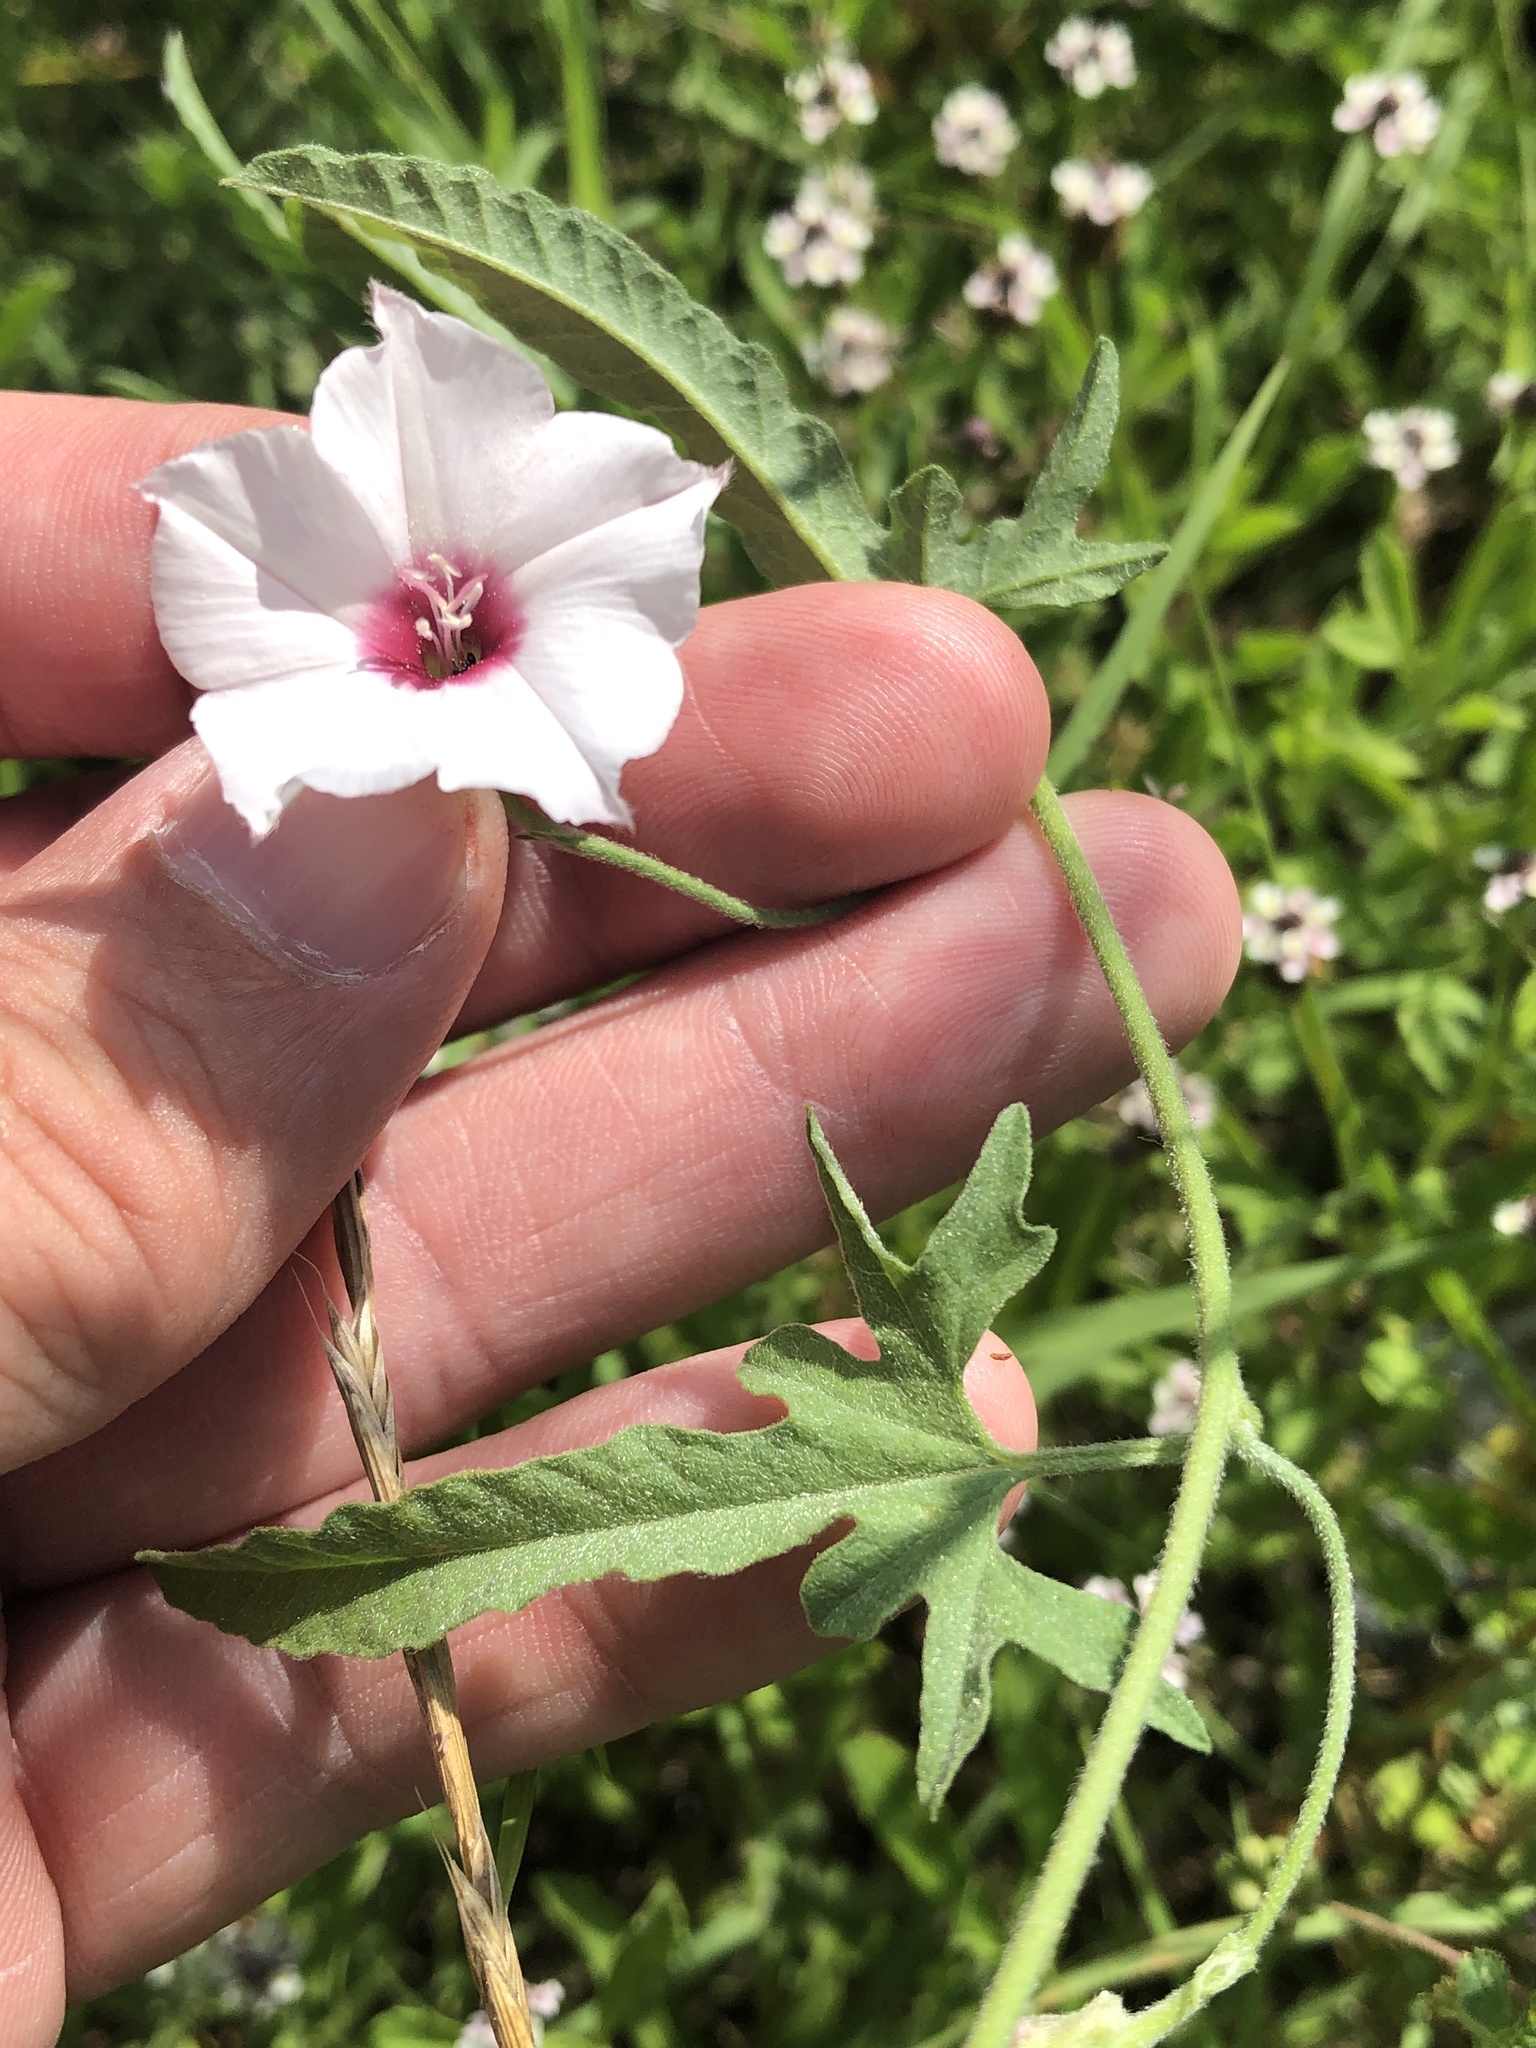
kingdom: Plantae
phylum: Tracheophyta
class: Magnoliopsida
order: Solanales
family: Convolvulaceae
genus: Convolvulus
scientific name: Convolvulus equitans
